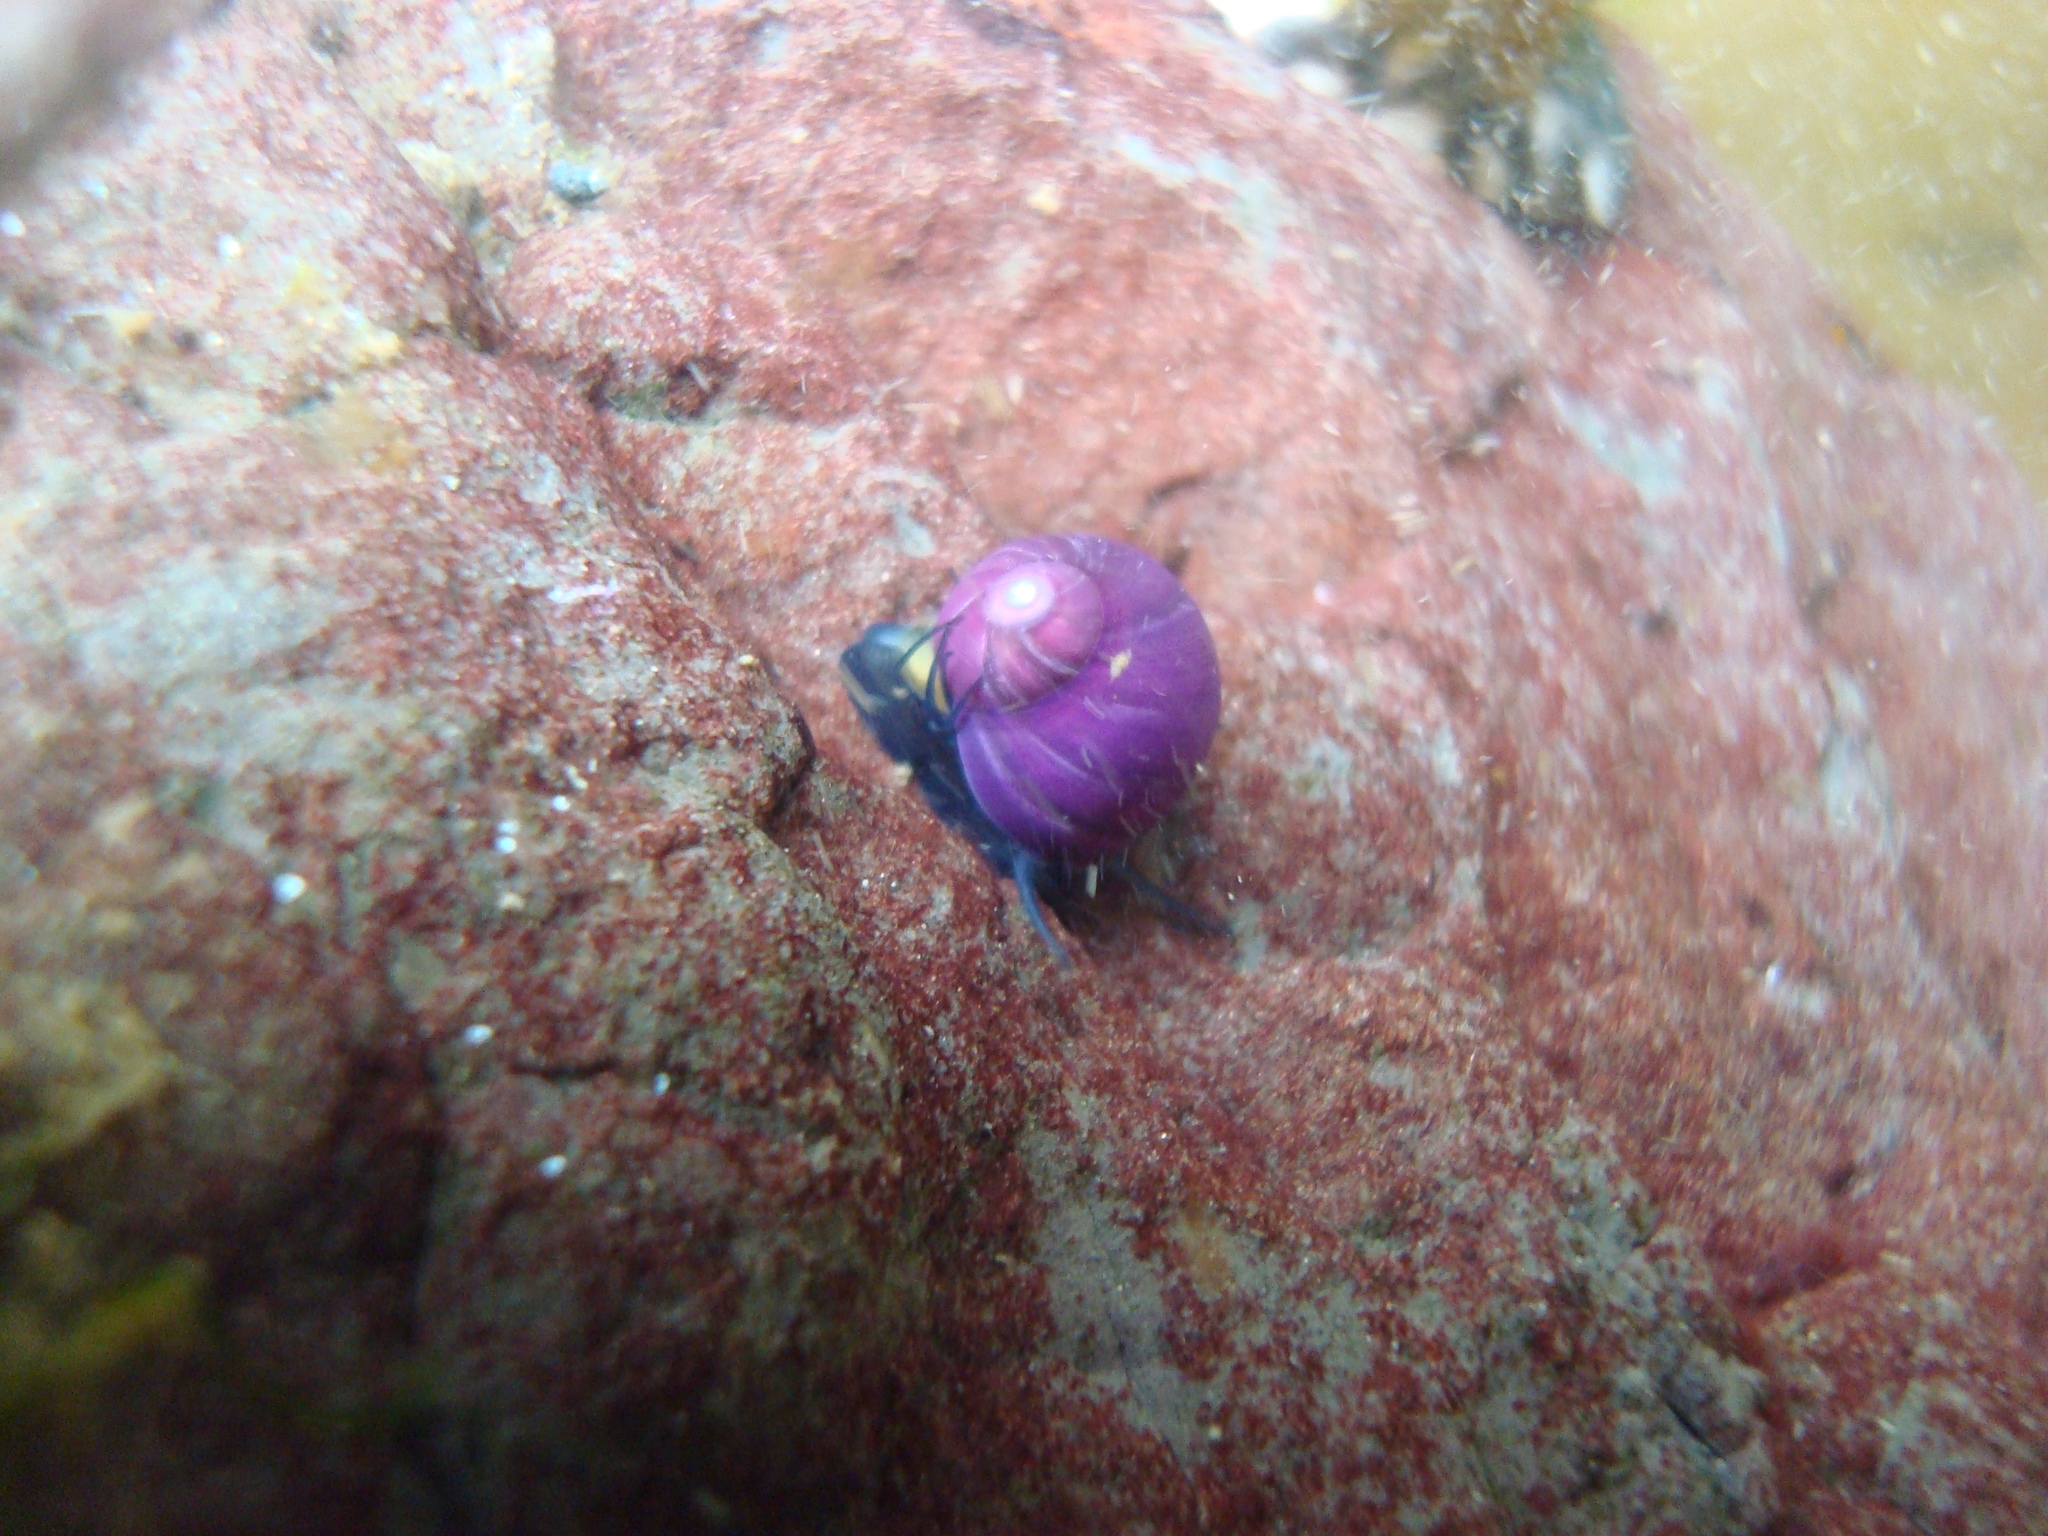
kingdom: Animalia
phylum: Mollusca
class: Gastropoda
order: Trochida
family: Calliostomatidae
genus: Margarella
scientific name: Margarella violacea
